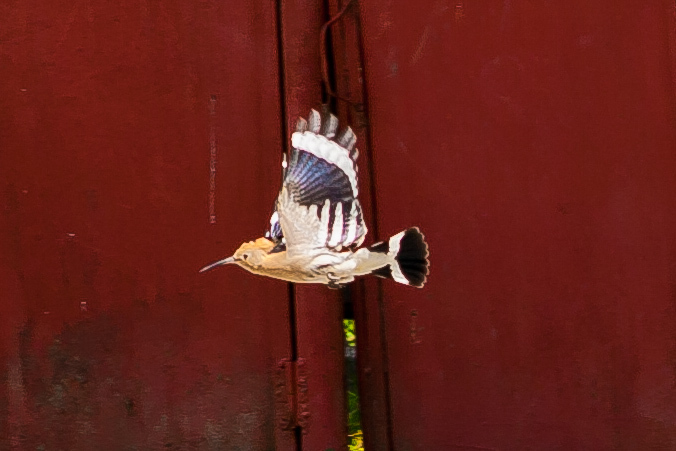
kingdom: Animalia
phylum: Chordata
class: Aves
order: Bucerotiformes
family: Upupidae
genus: Upupa
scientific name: Upupa epops
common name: Eurasian hoopoe
